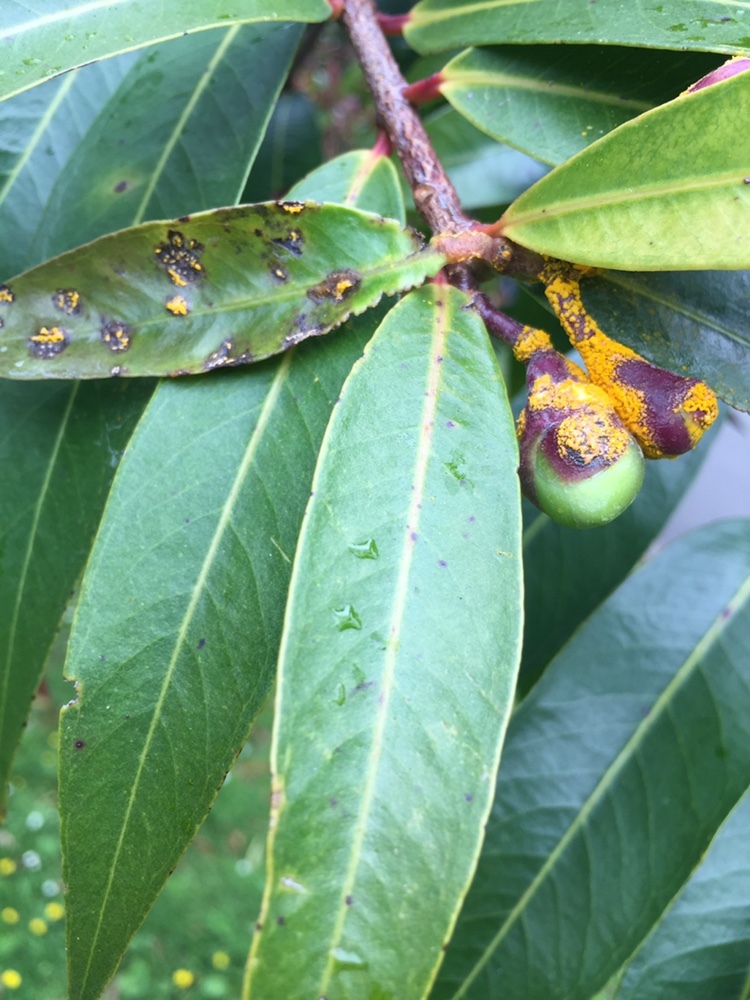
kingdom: Fungi
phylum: Basidiomycota
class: Pucciniomycetes
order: Pucciniales
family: Sphaerophragmiaceae
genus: Austropuccinia
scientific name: Austropuccinia psidii
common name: Myrtle rust
